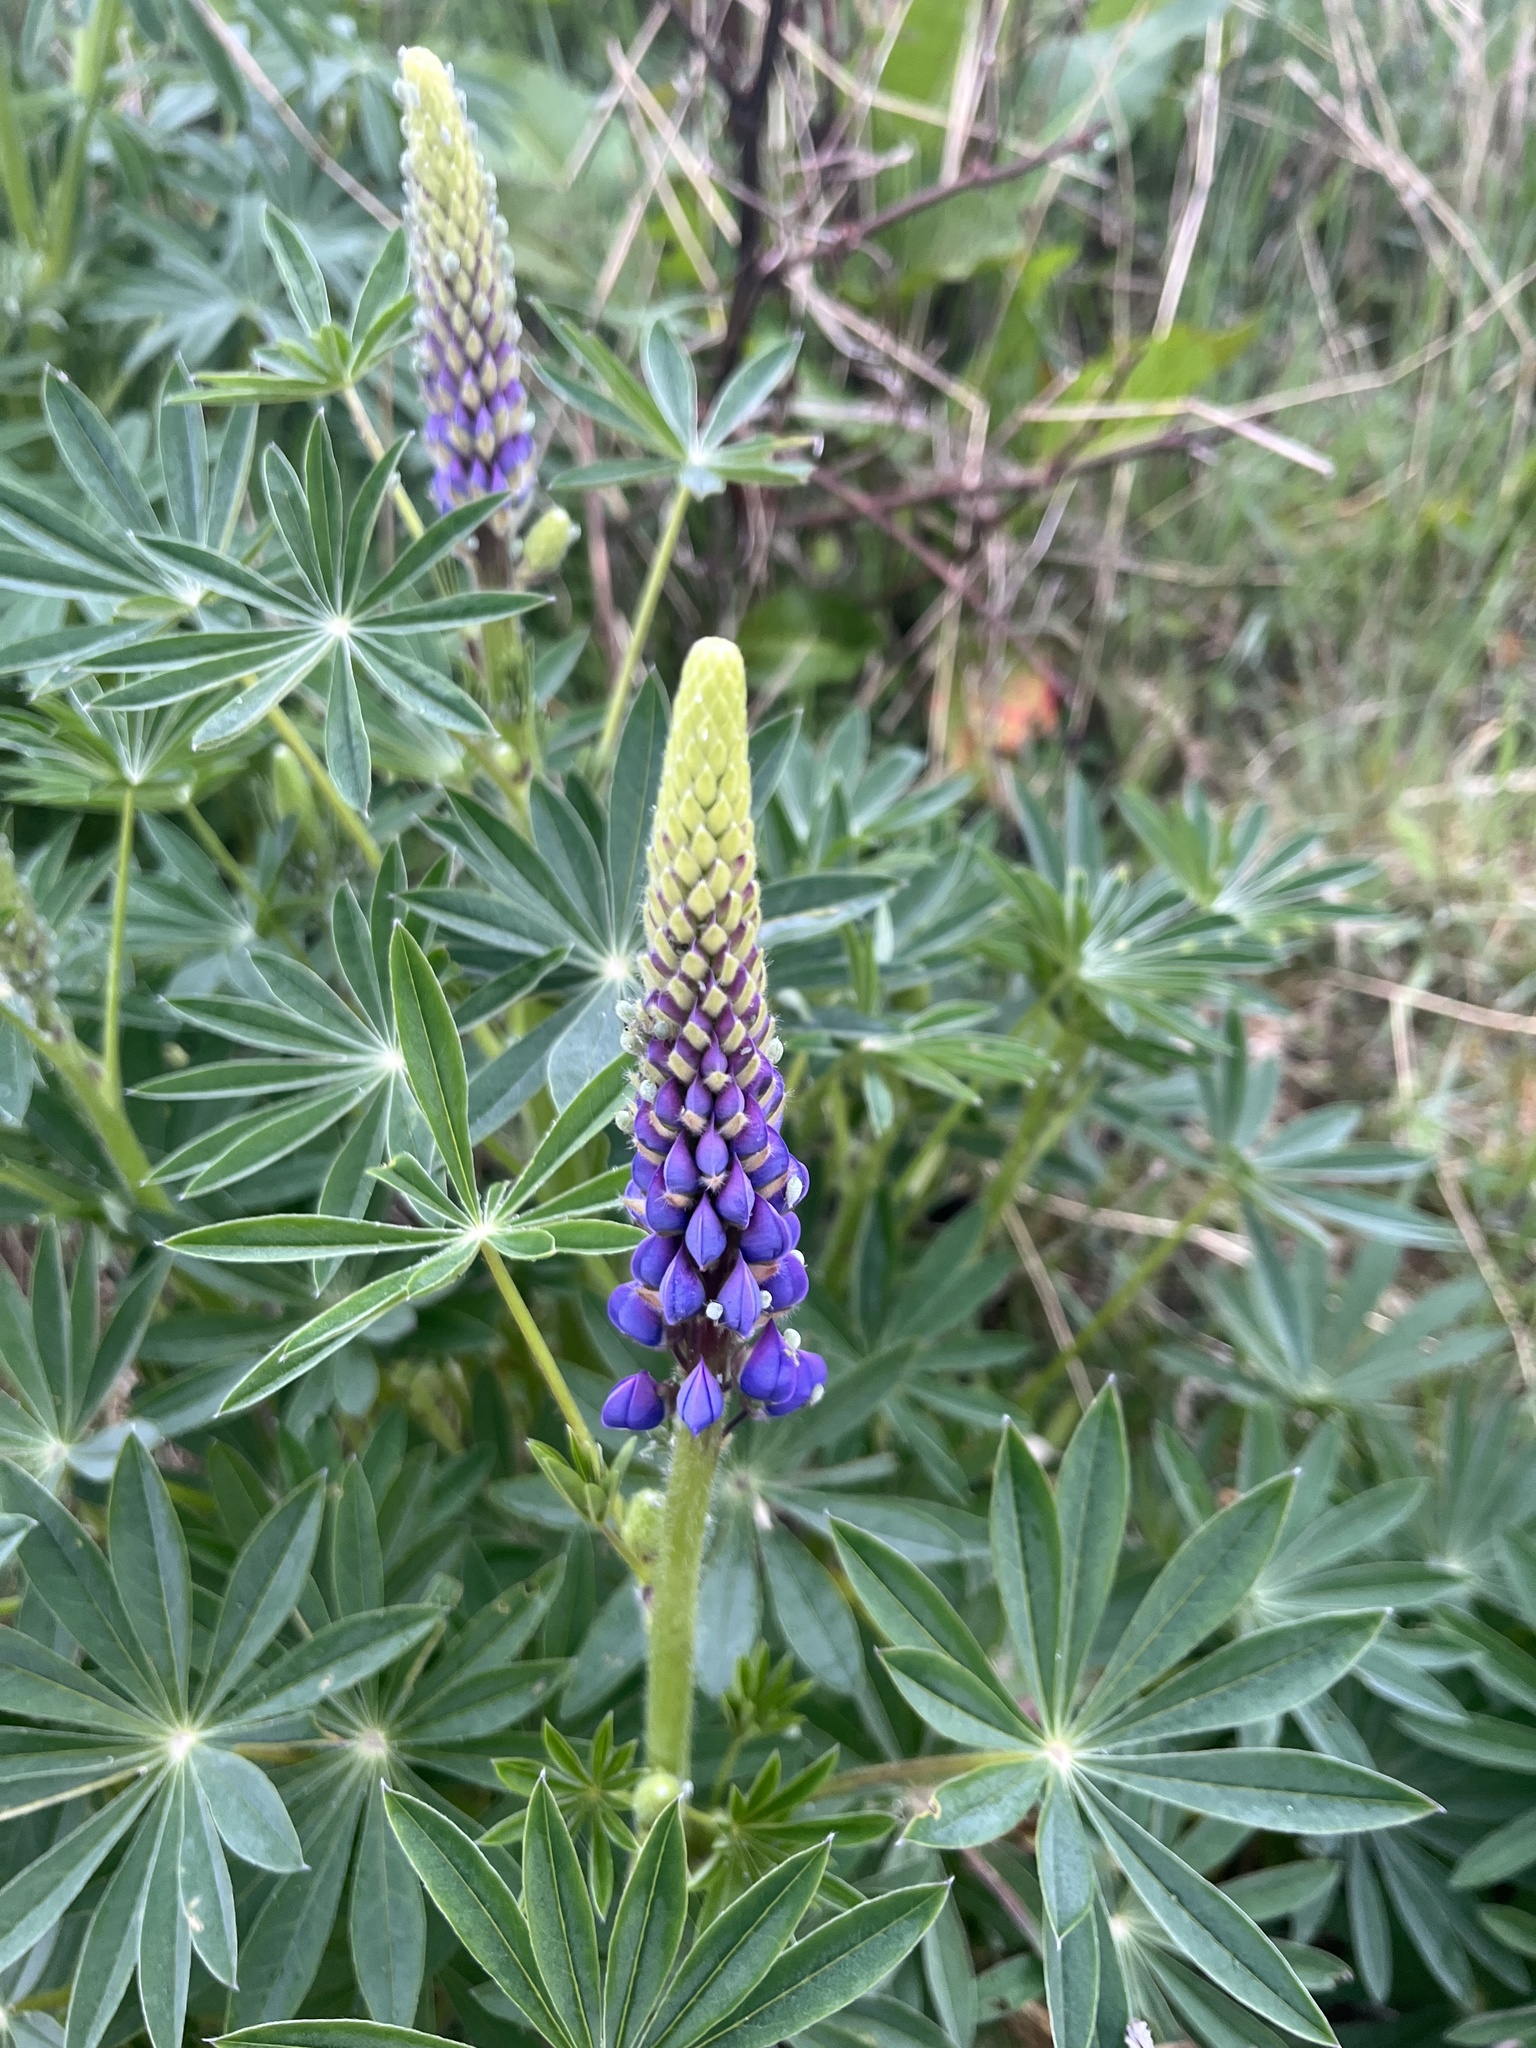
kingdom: Plantae
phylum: Tracheophyta
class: Magnoliopsida
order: Fabales
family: Fabaceae
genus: Lupinus
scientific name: Lupinus polyphyllus
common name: Garden lupin
